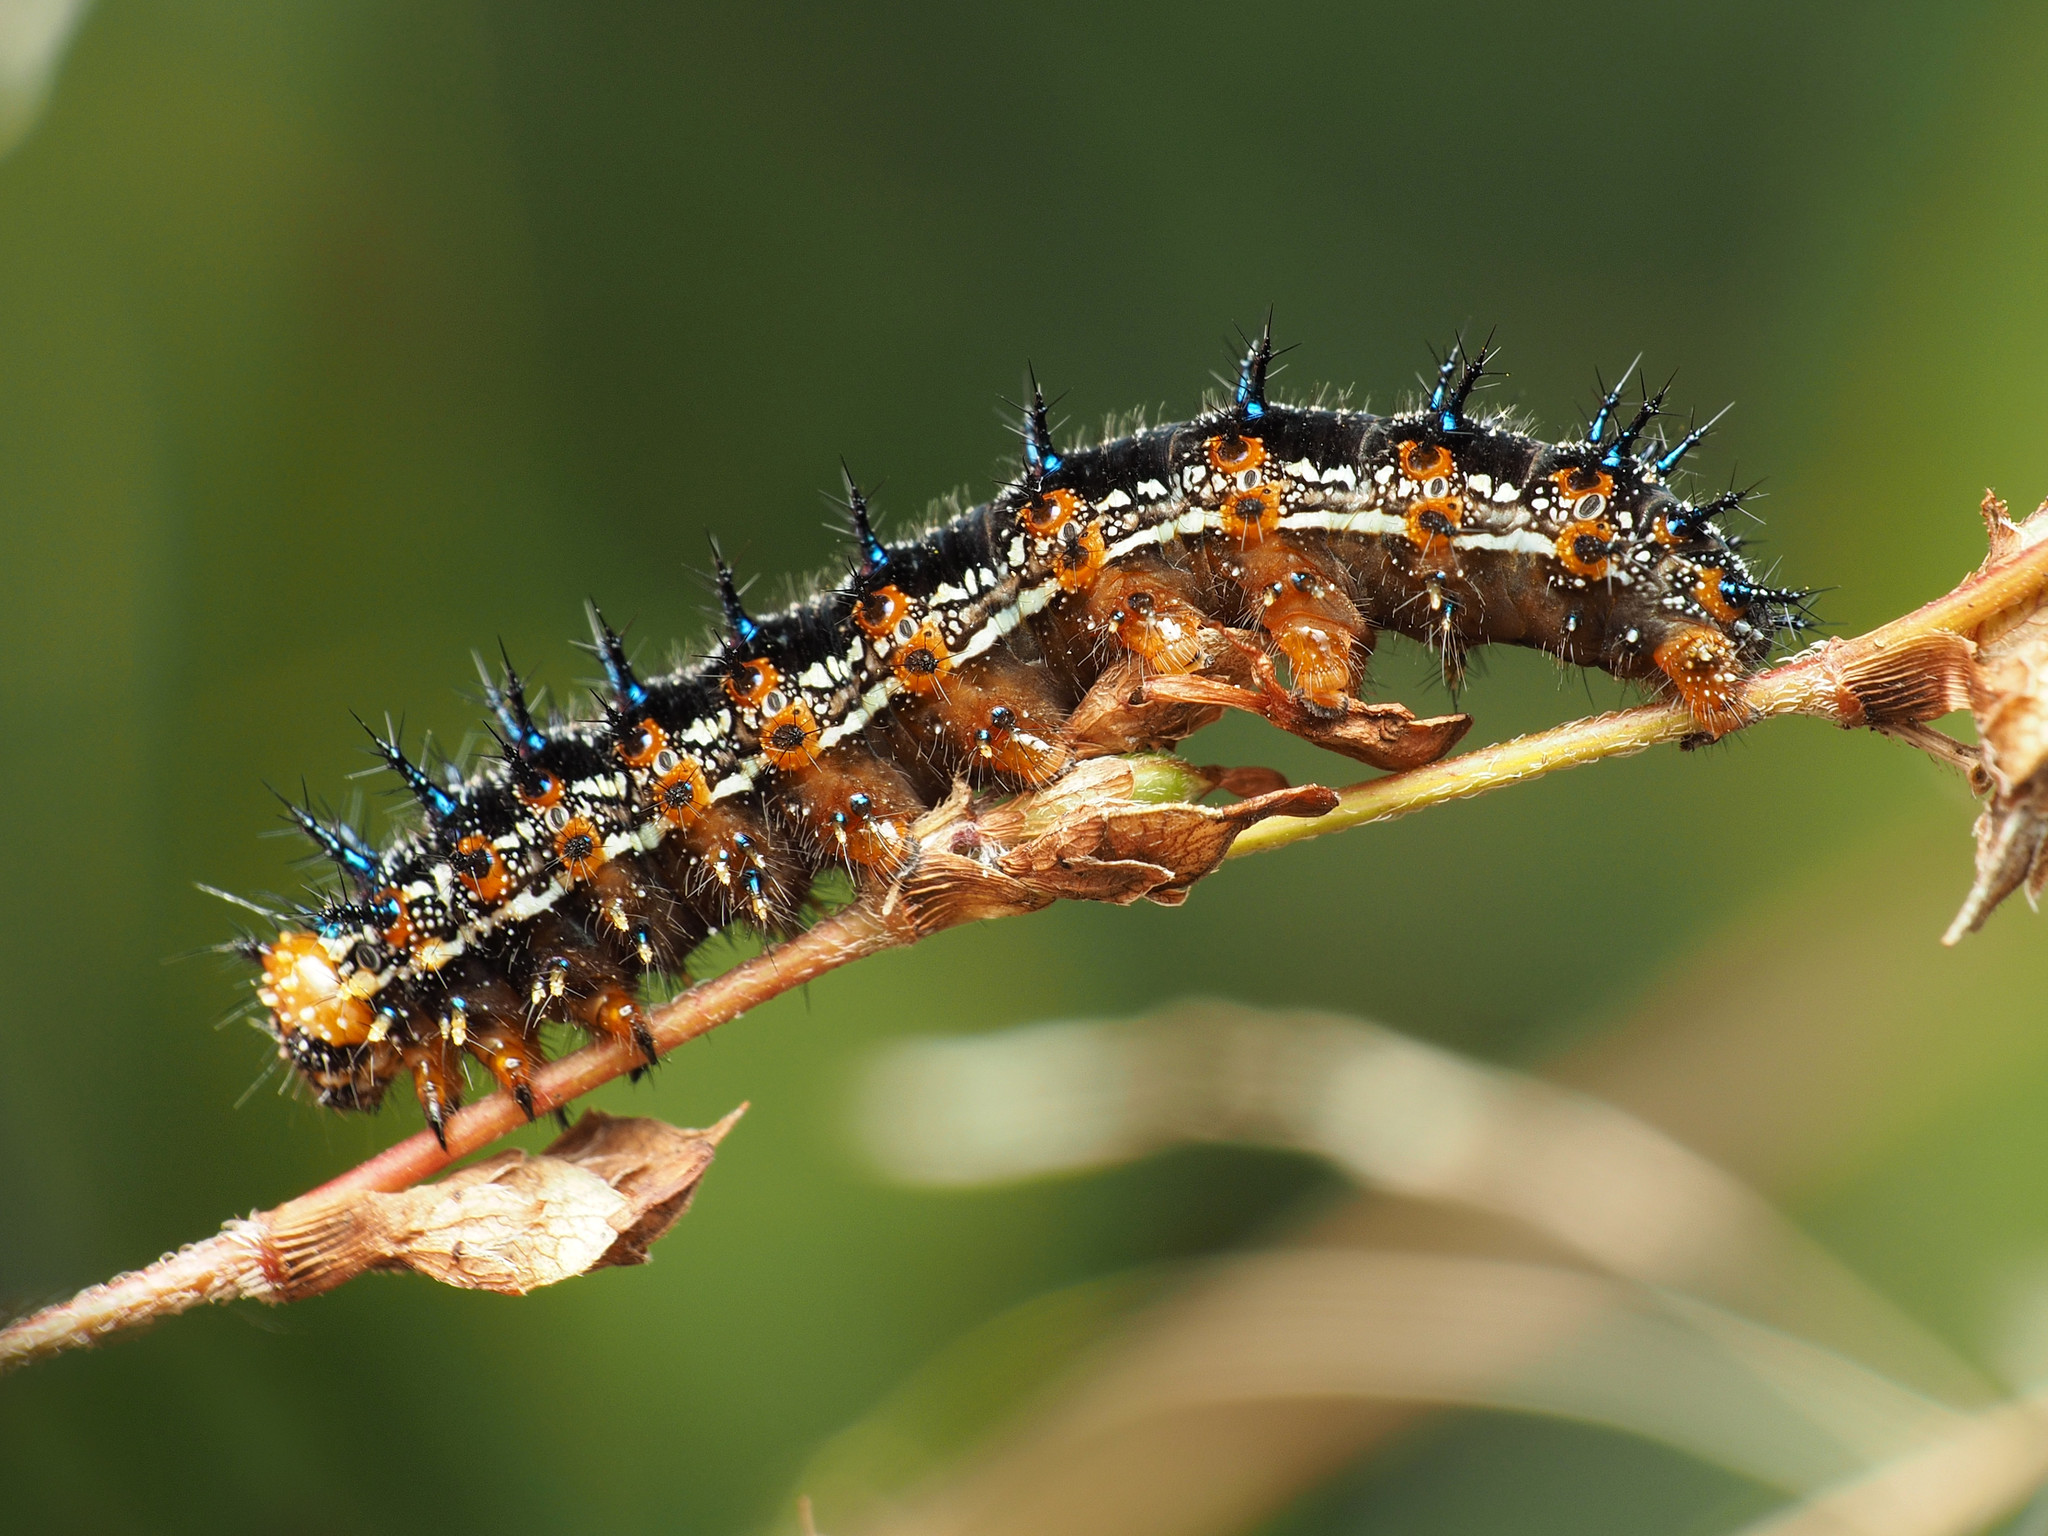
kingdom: Animalia
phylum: Arthropoda
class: Insecta
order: Lepidoptera
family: Nymphalidae
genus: Junonia
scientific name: Junonia coenia
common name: Common buckeye
